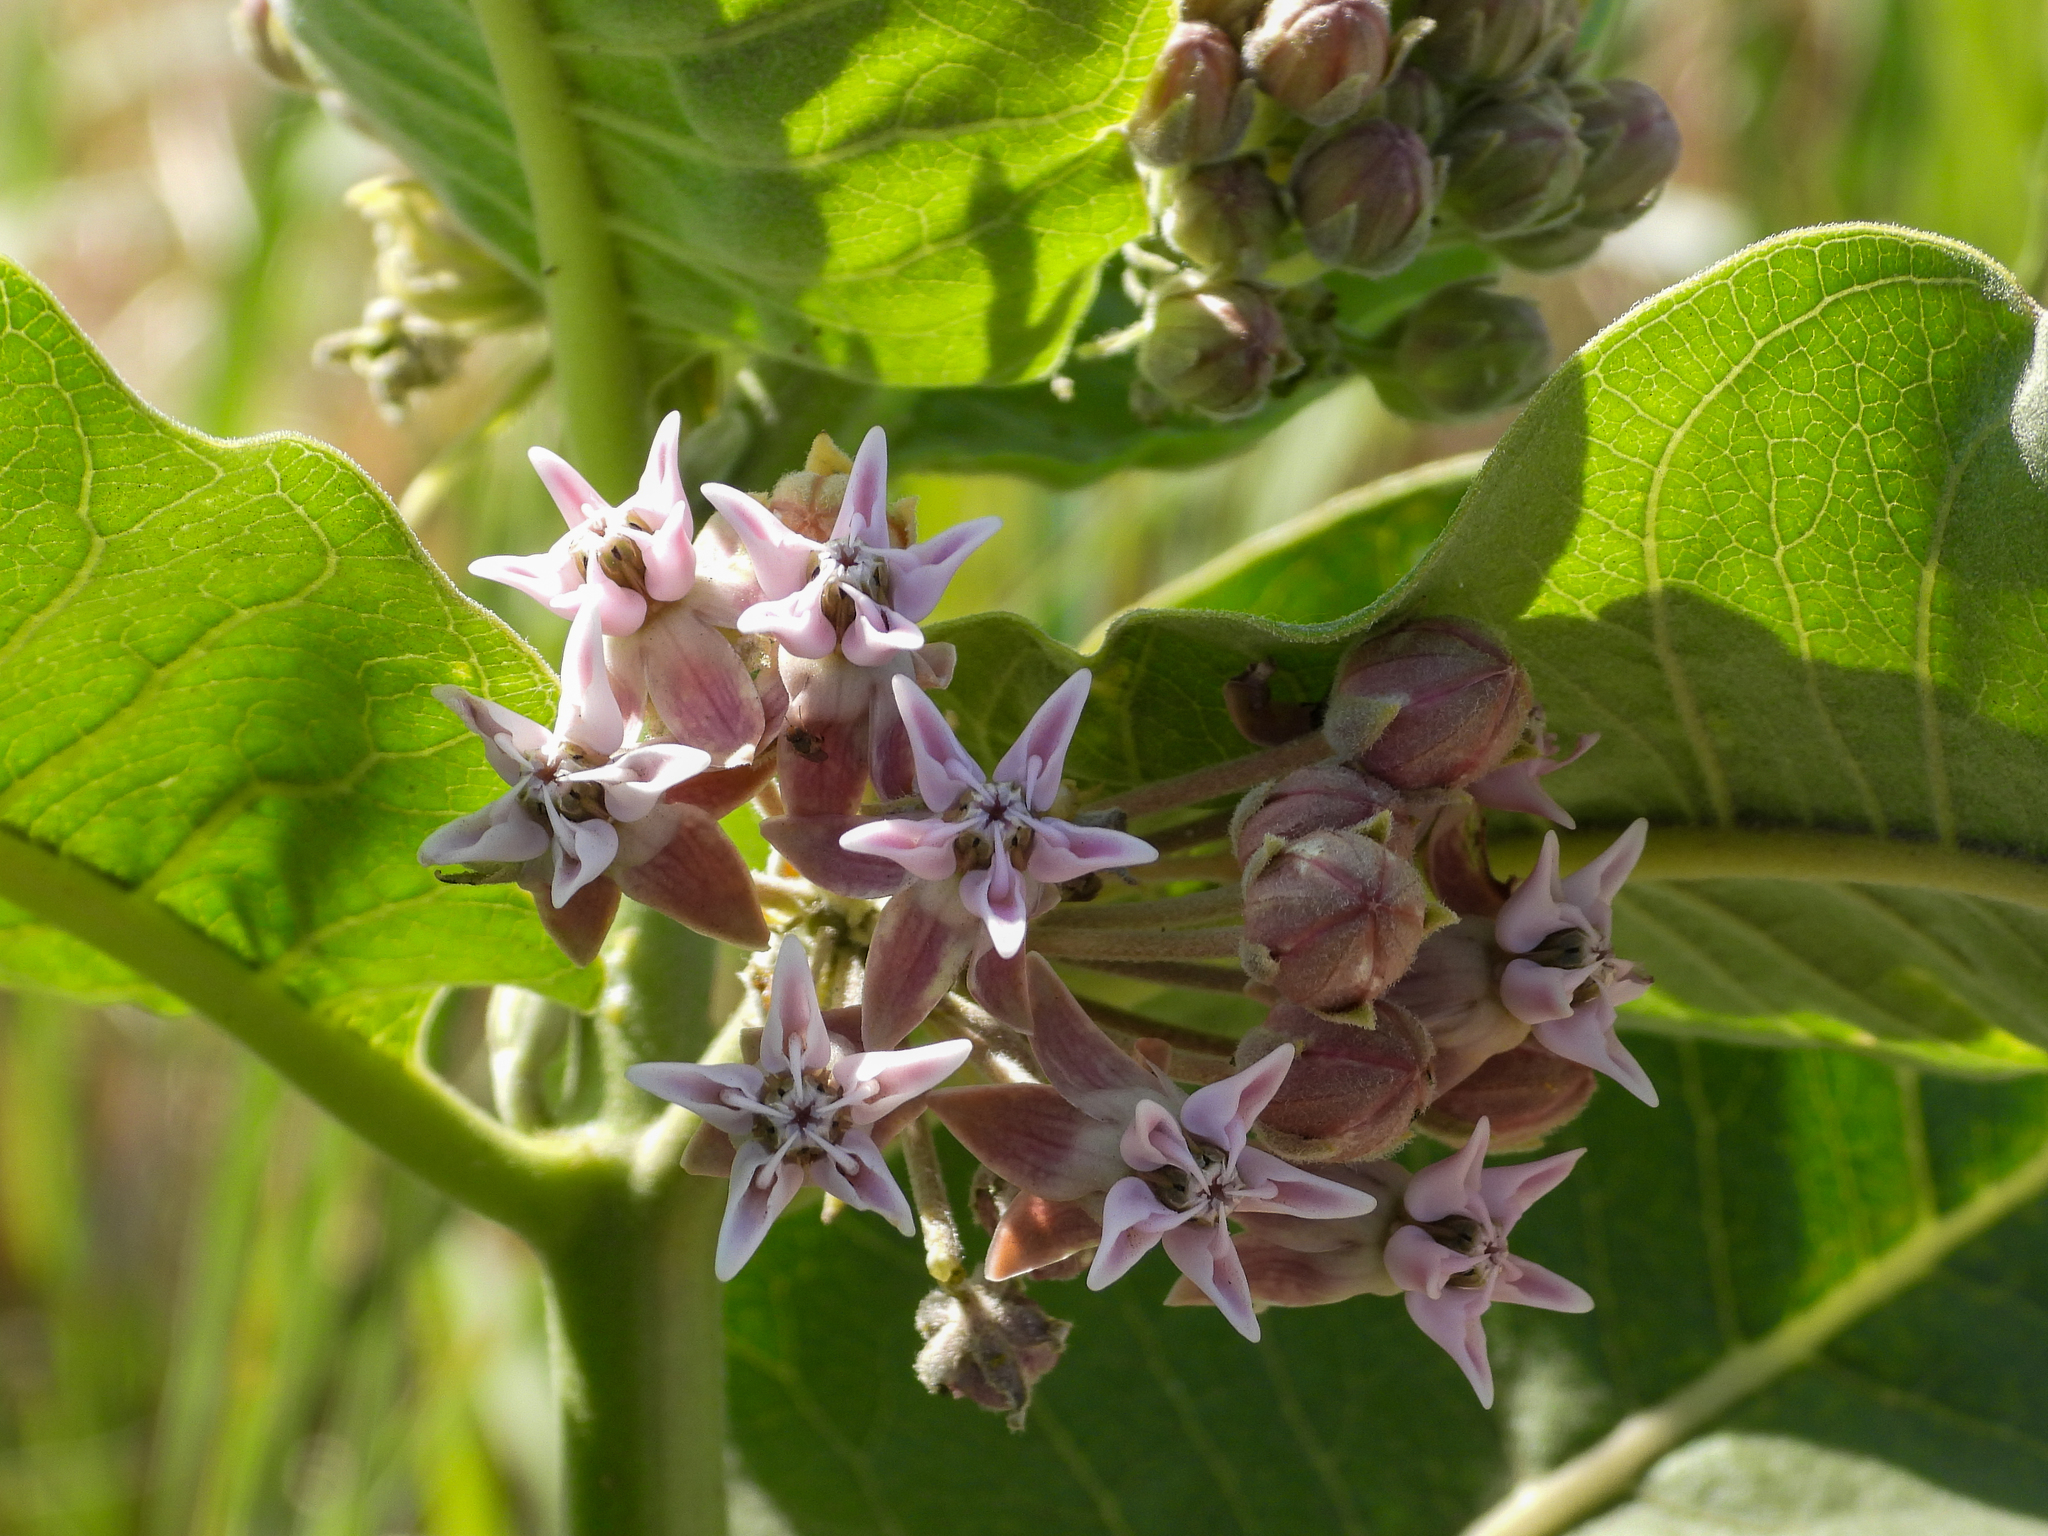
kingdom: Plantae
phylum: Tracheophyta
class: Magnoliopsida
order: Gentianales
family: Apocynaceae
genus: Asclepias
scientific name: Asclepias speciosa
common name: Showy milkweed
